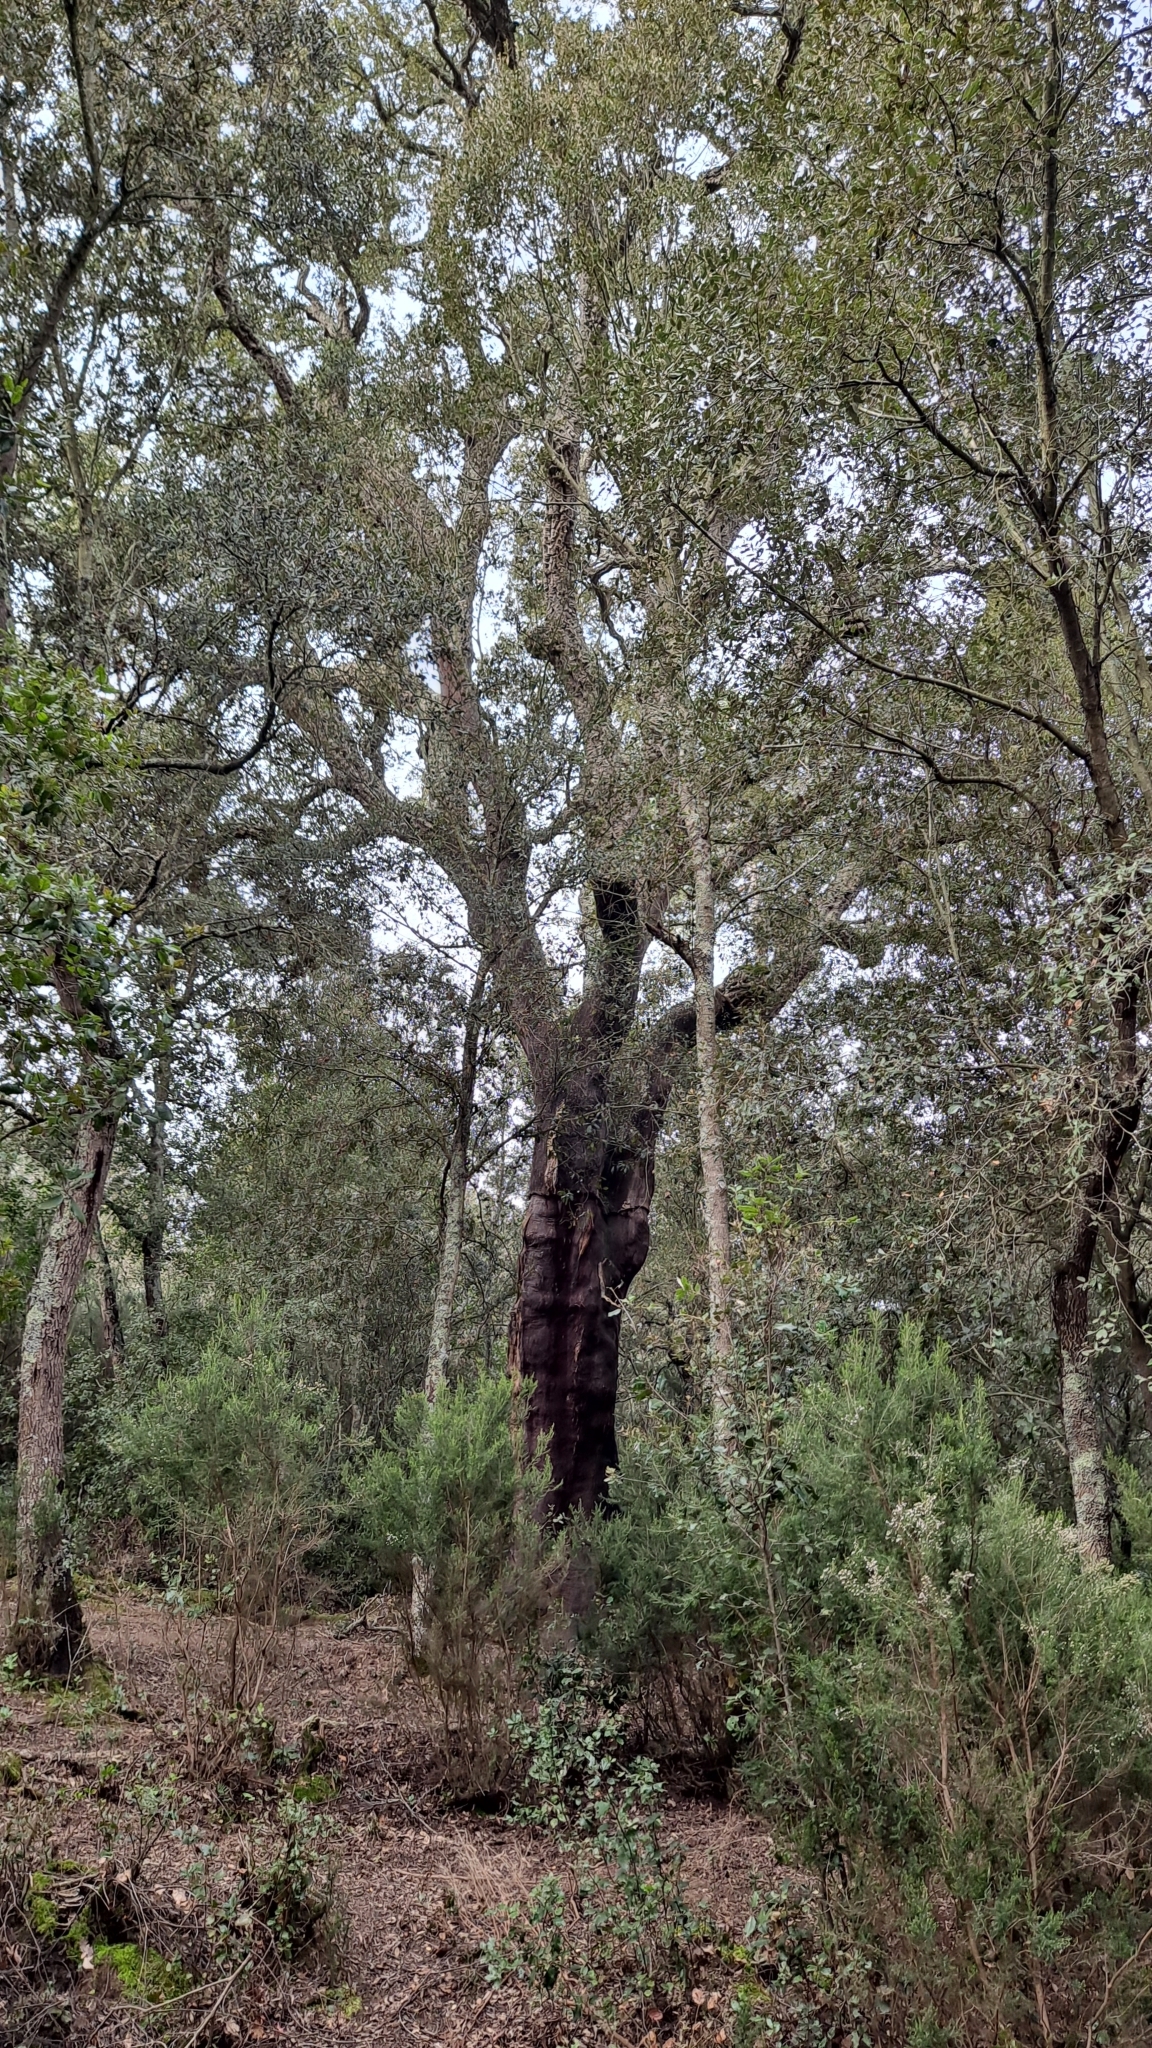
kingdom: Plantae
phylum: Tracheophyta
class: Magnoliopsida
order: Fagales
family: Fagaceae
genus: Quercus
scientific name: Quercus suber
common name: Cork oak
